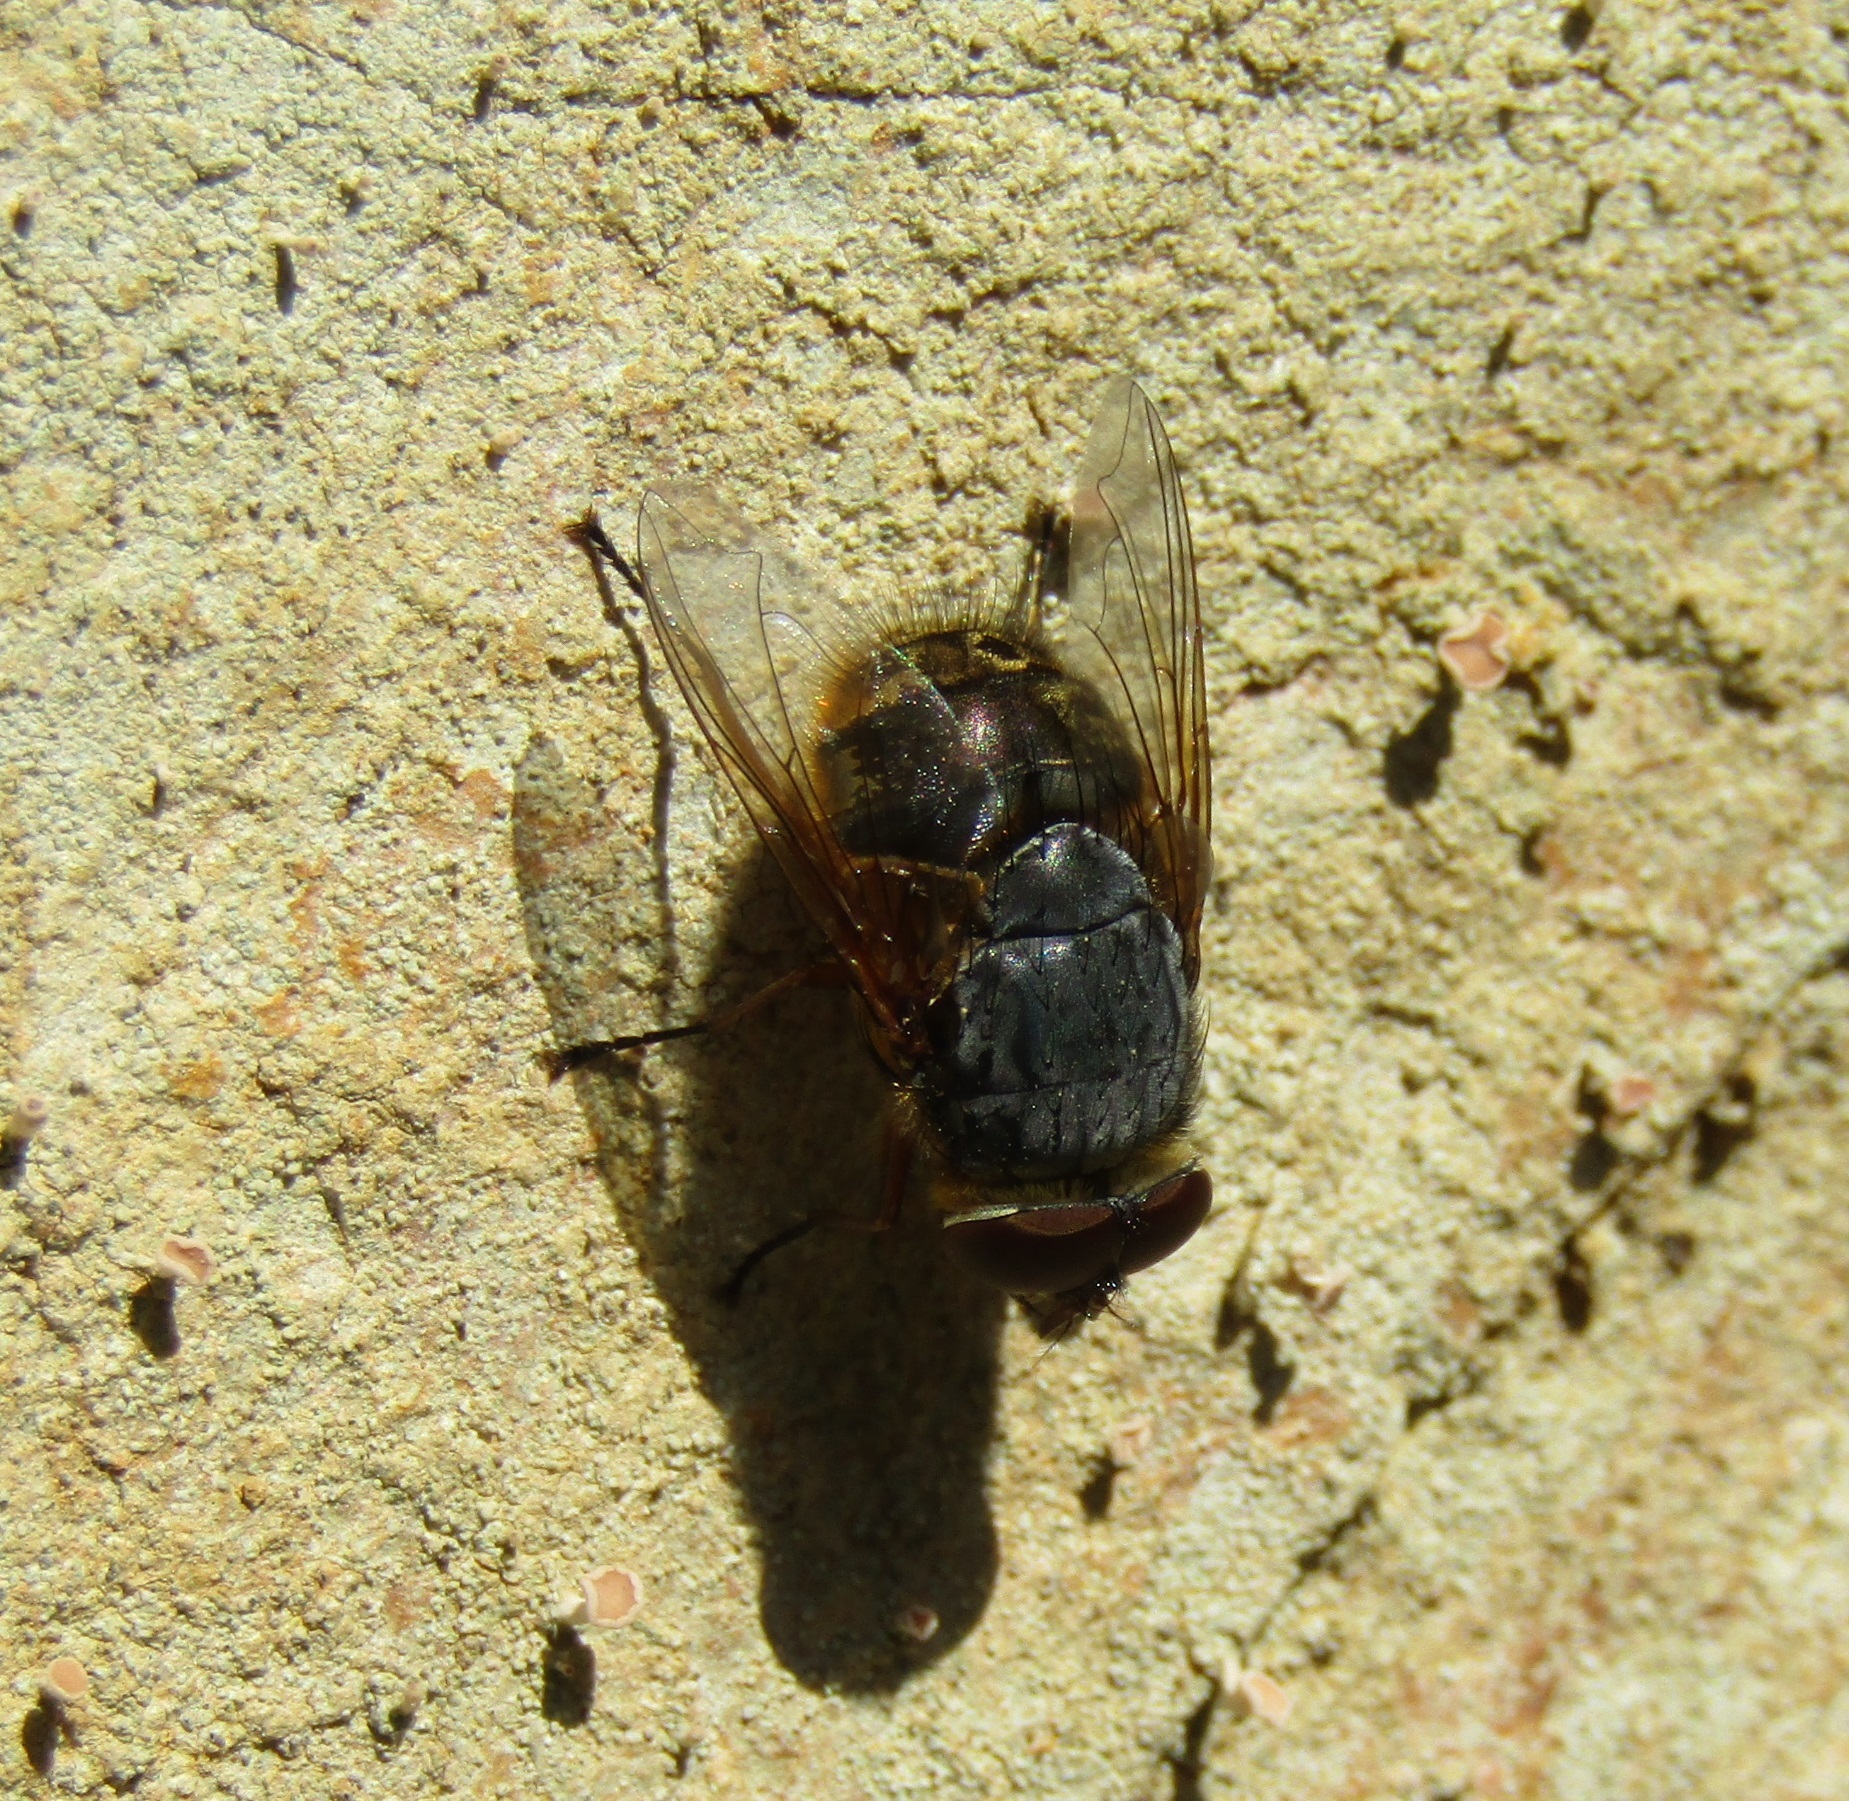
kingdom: Animalia
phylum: Arthropoda
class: Insecta
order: Diptera
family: Calliphoridae
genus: Calliphora
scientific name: Calliphora stygia
